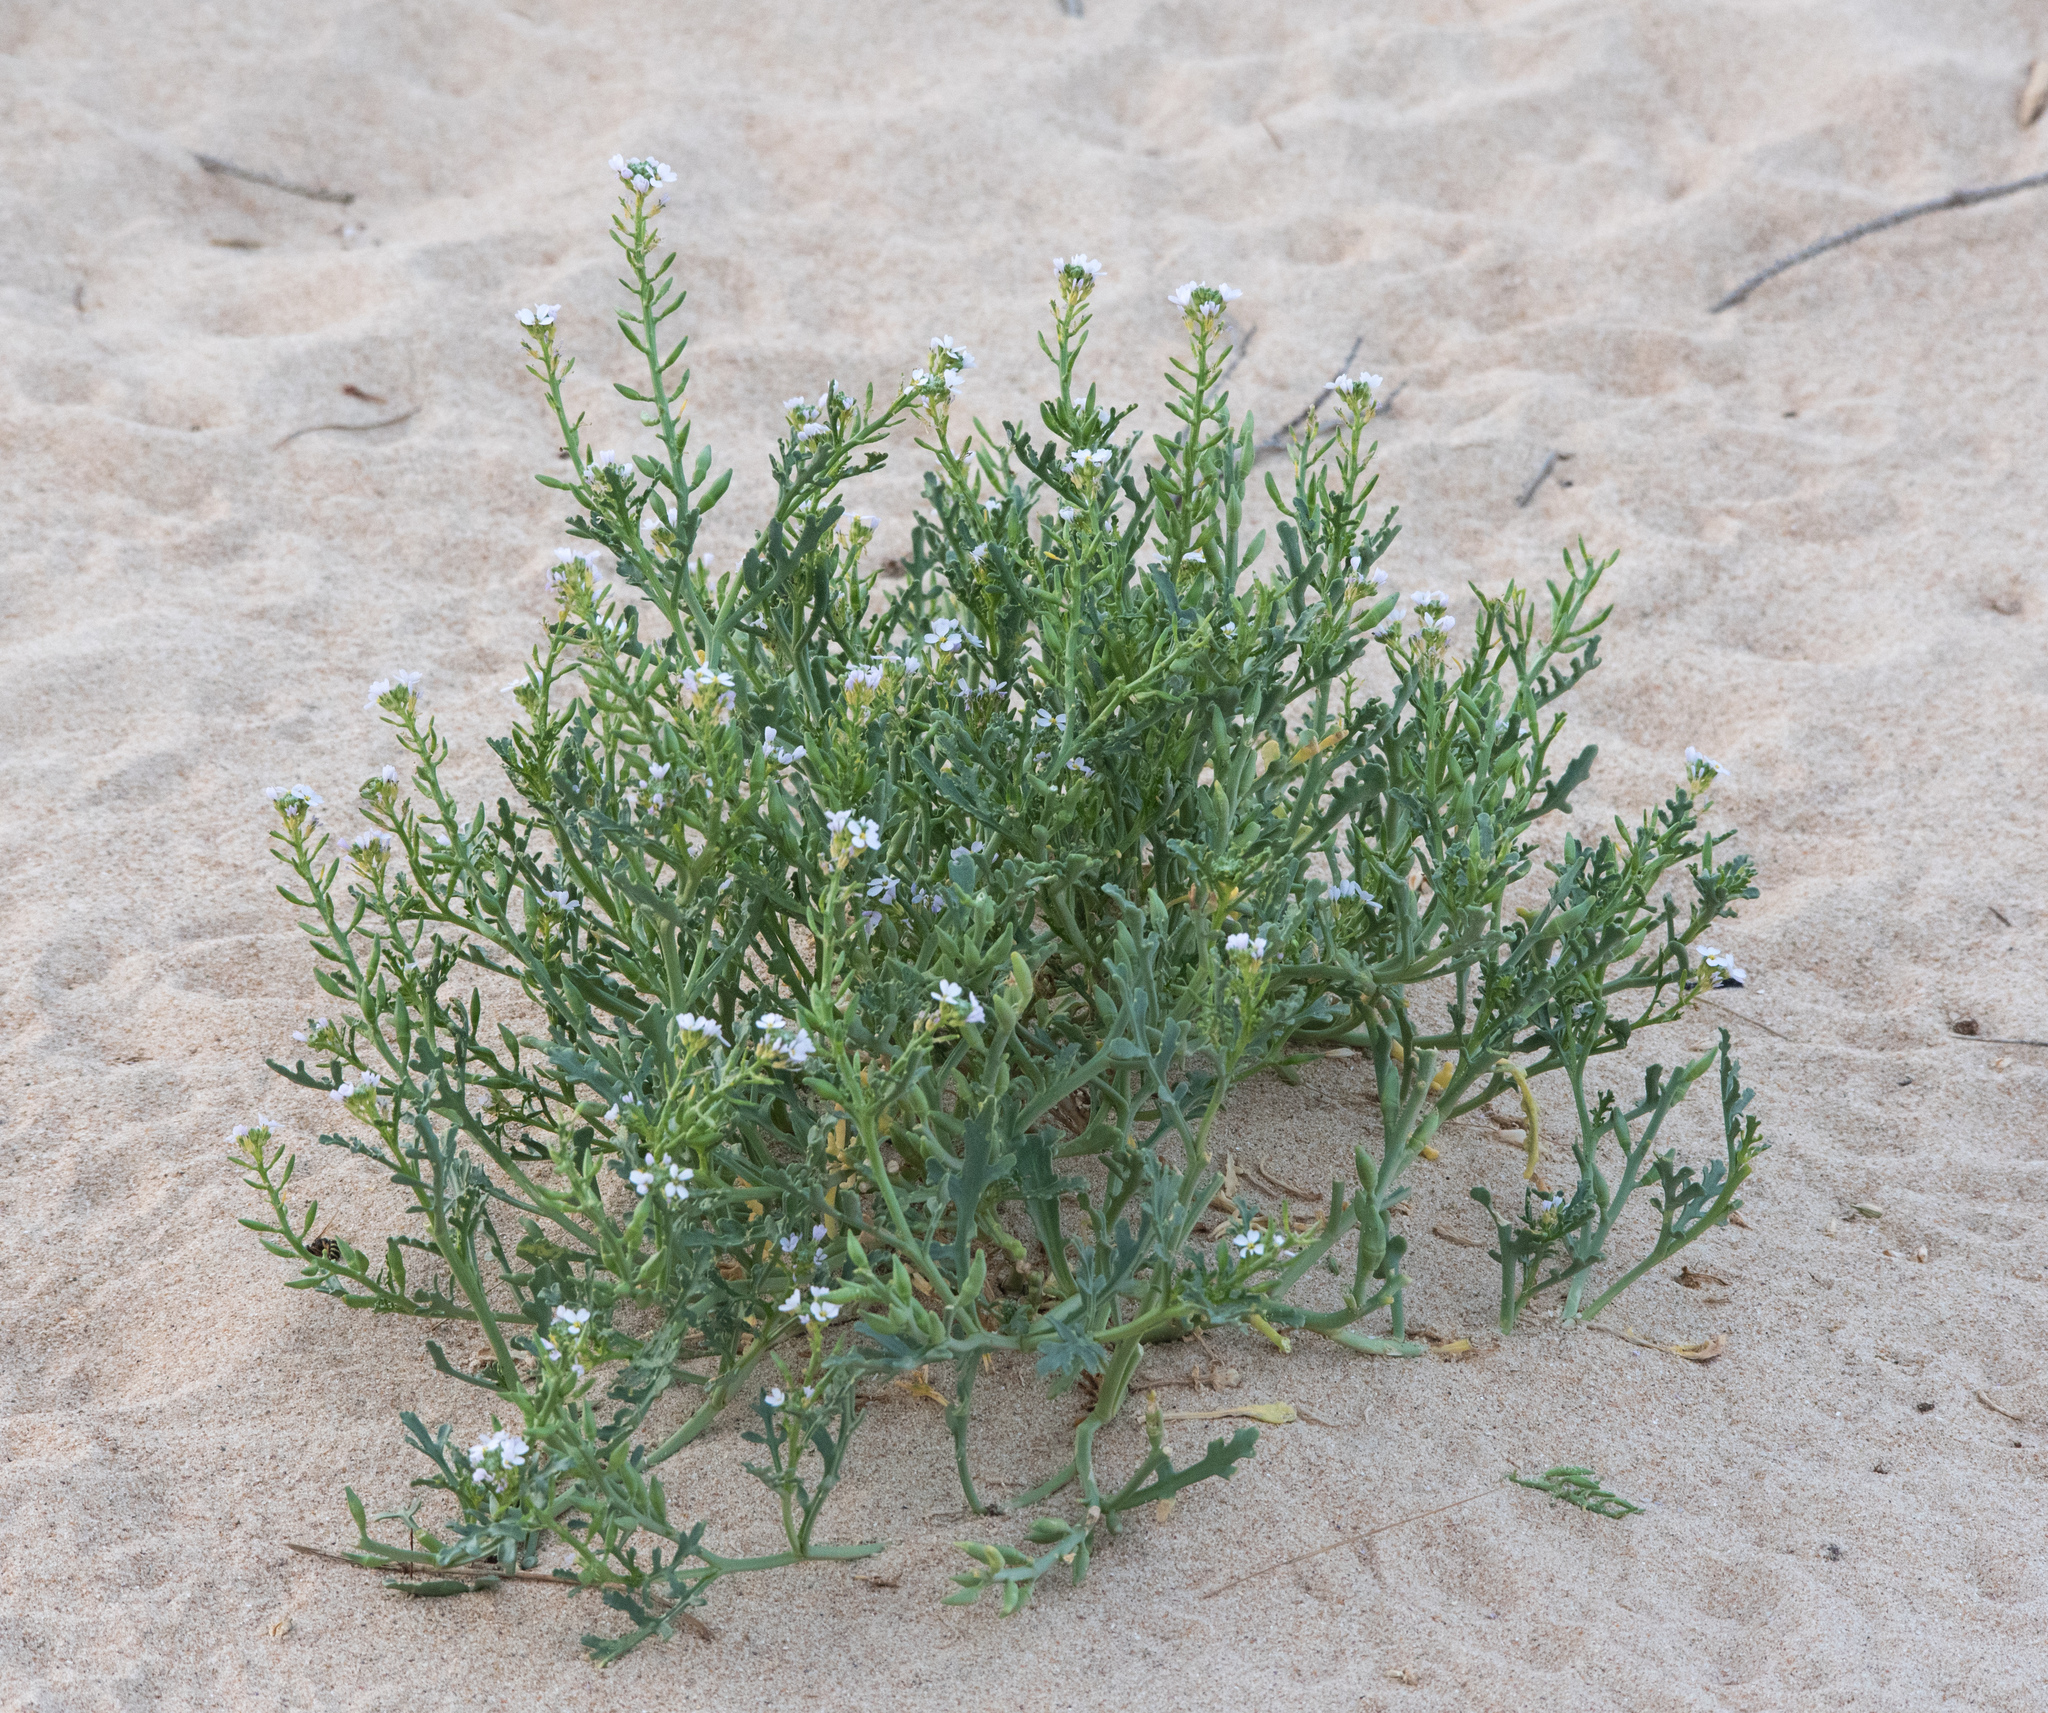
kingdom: Plantae
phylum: Tracheophyta
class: Magnoliopsida
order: Brassicales
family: Brassicaceae
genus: Cakile
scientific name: Cakile maritima
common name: Sea rocket
